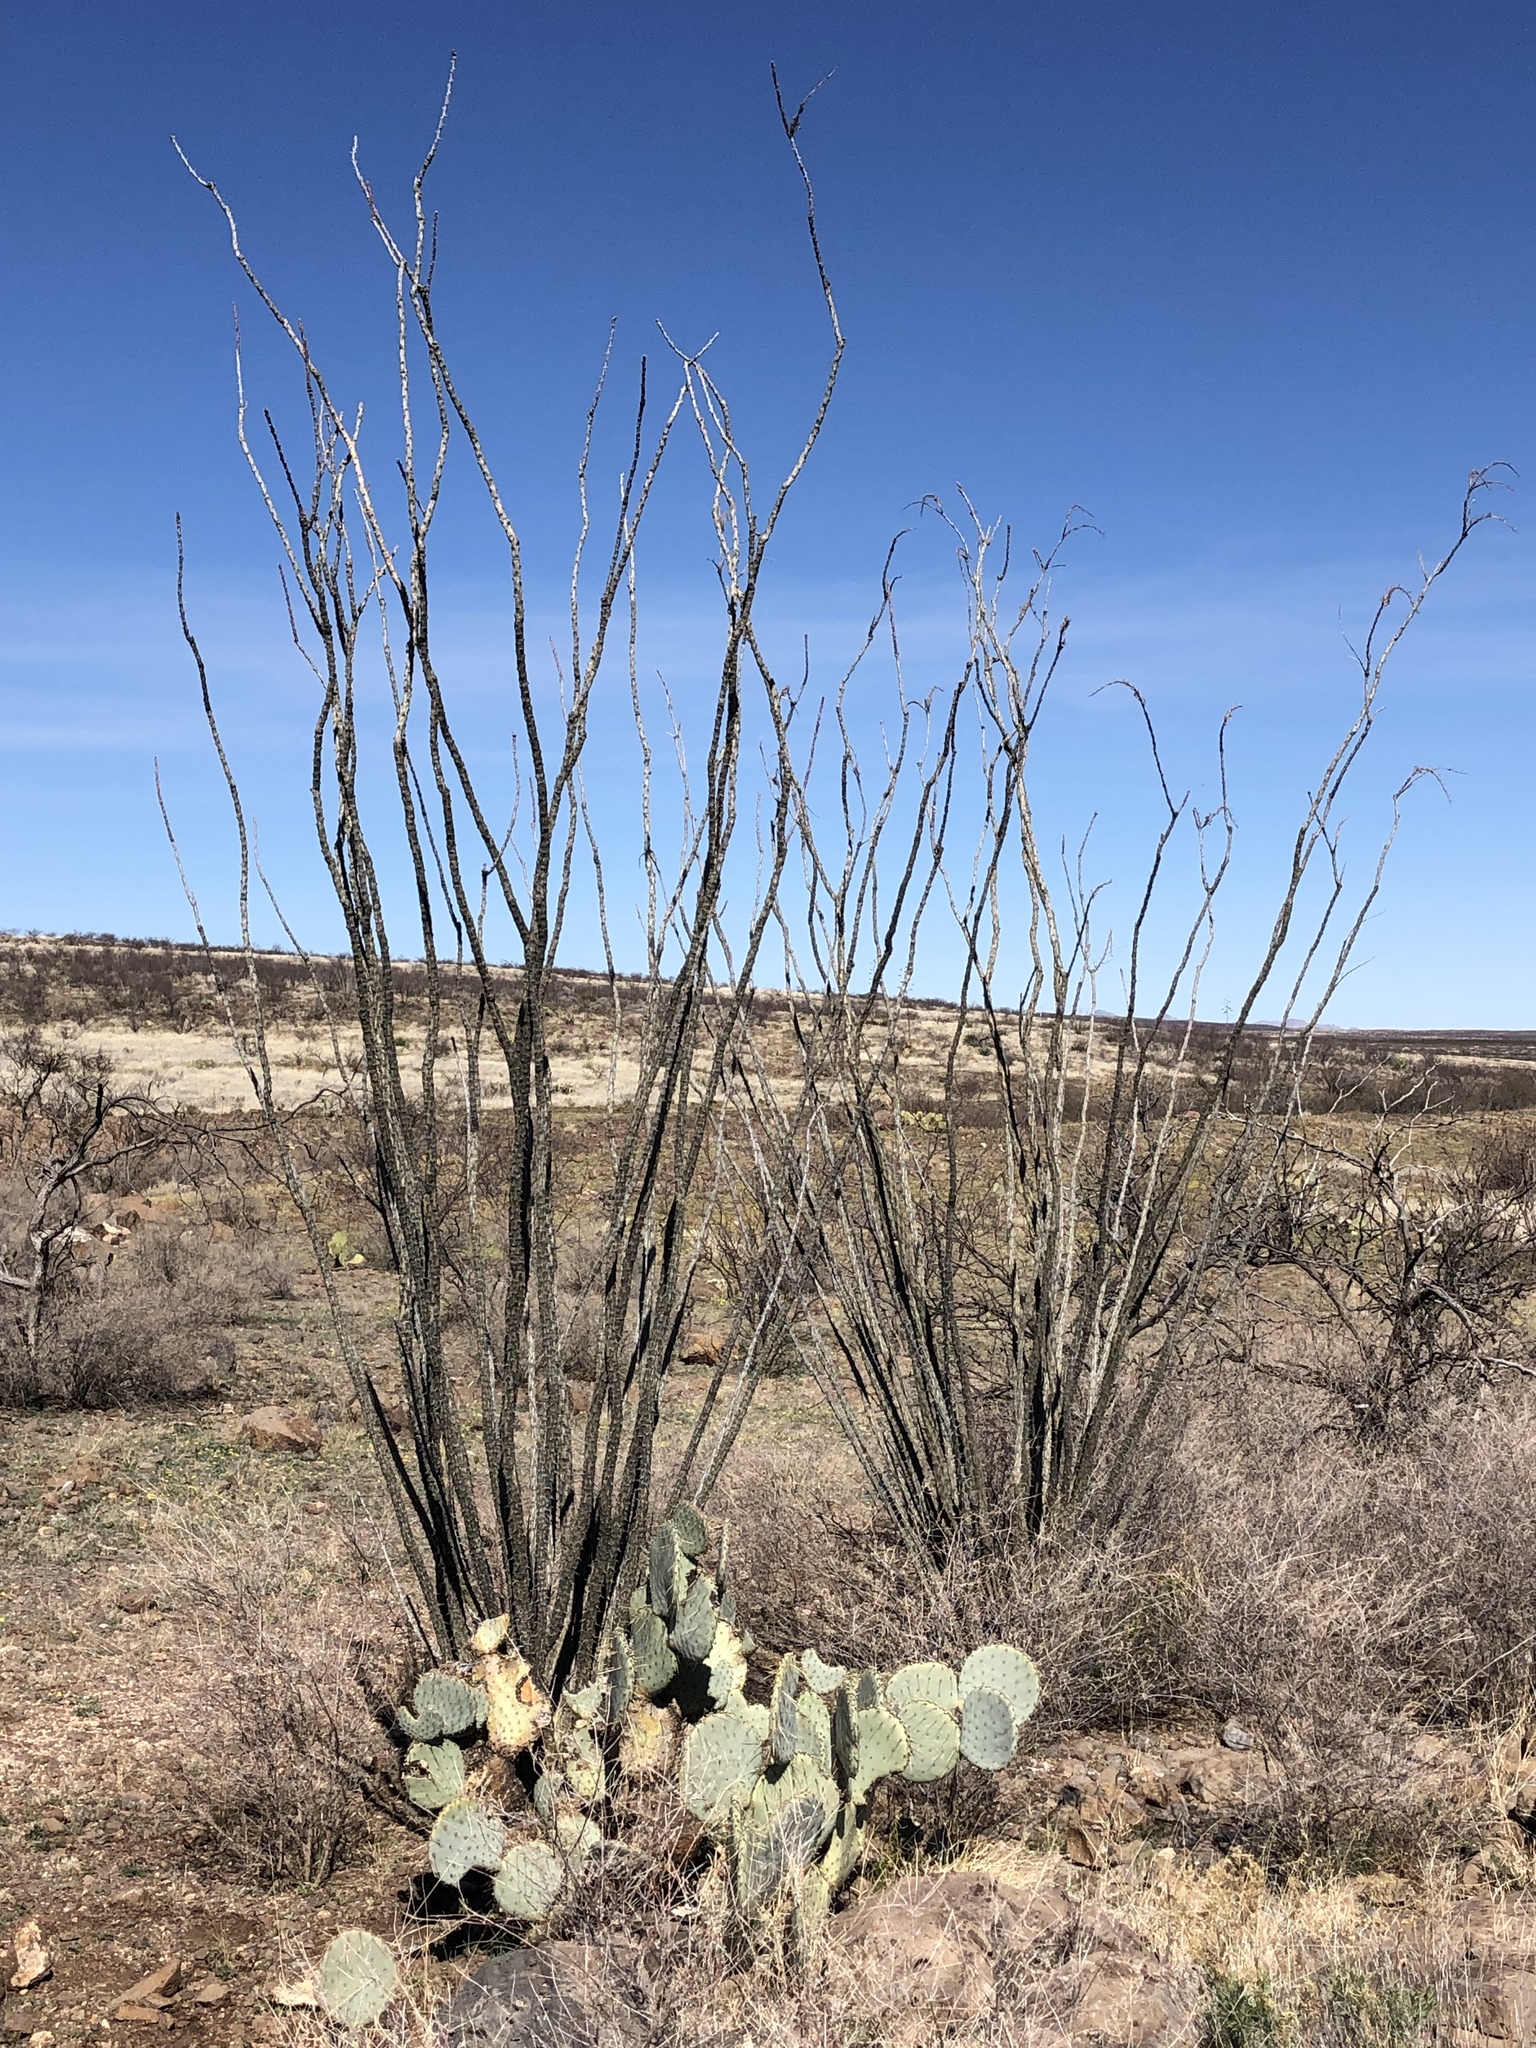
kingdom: Plantae
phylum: Tracheophyta
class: Magnoliopsida
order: Ericales
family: Fouquieriaceae
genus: Fouquieria
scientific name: Fouquieria splendens
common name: Vine-cactus
